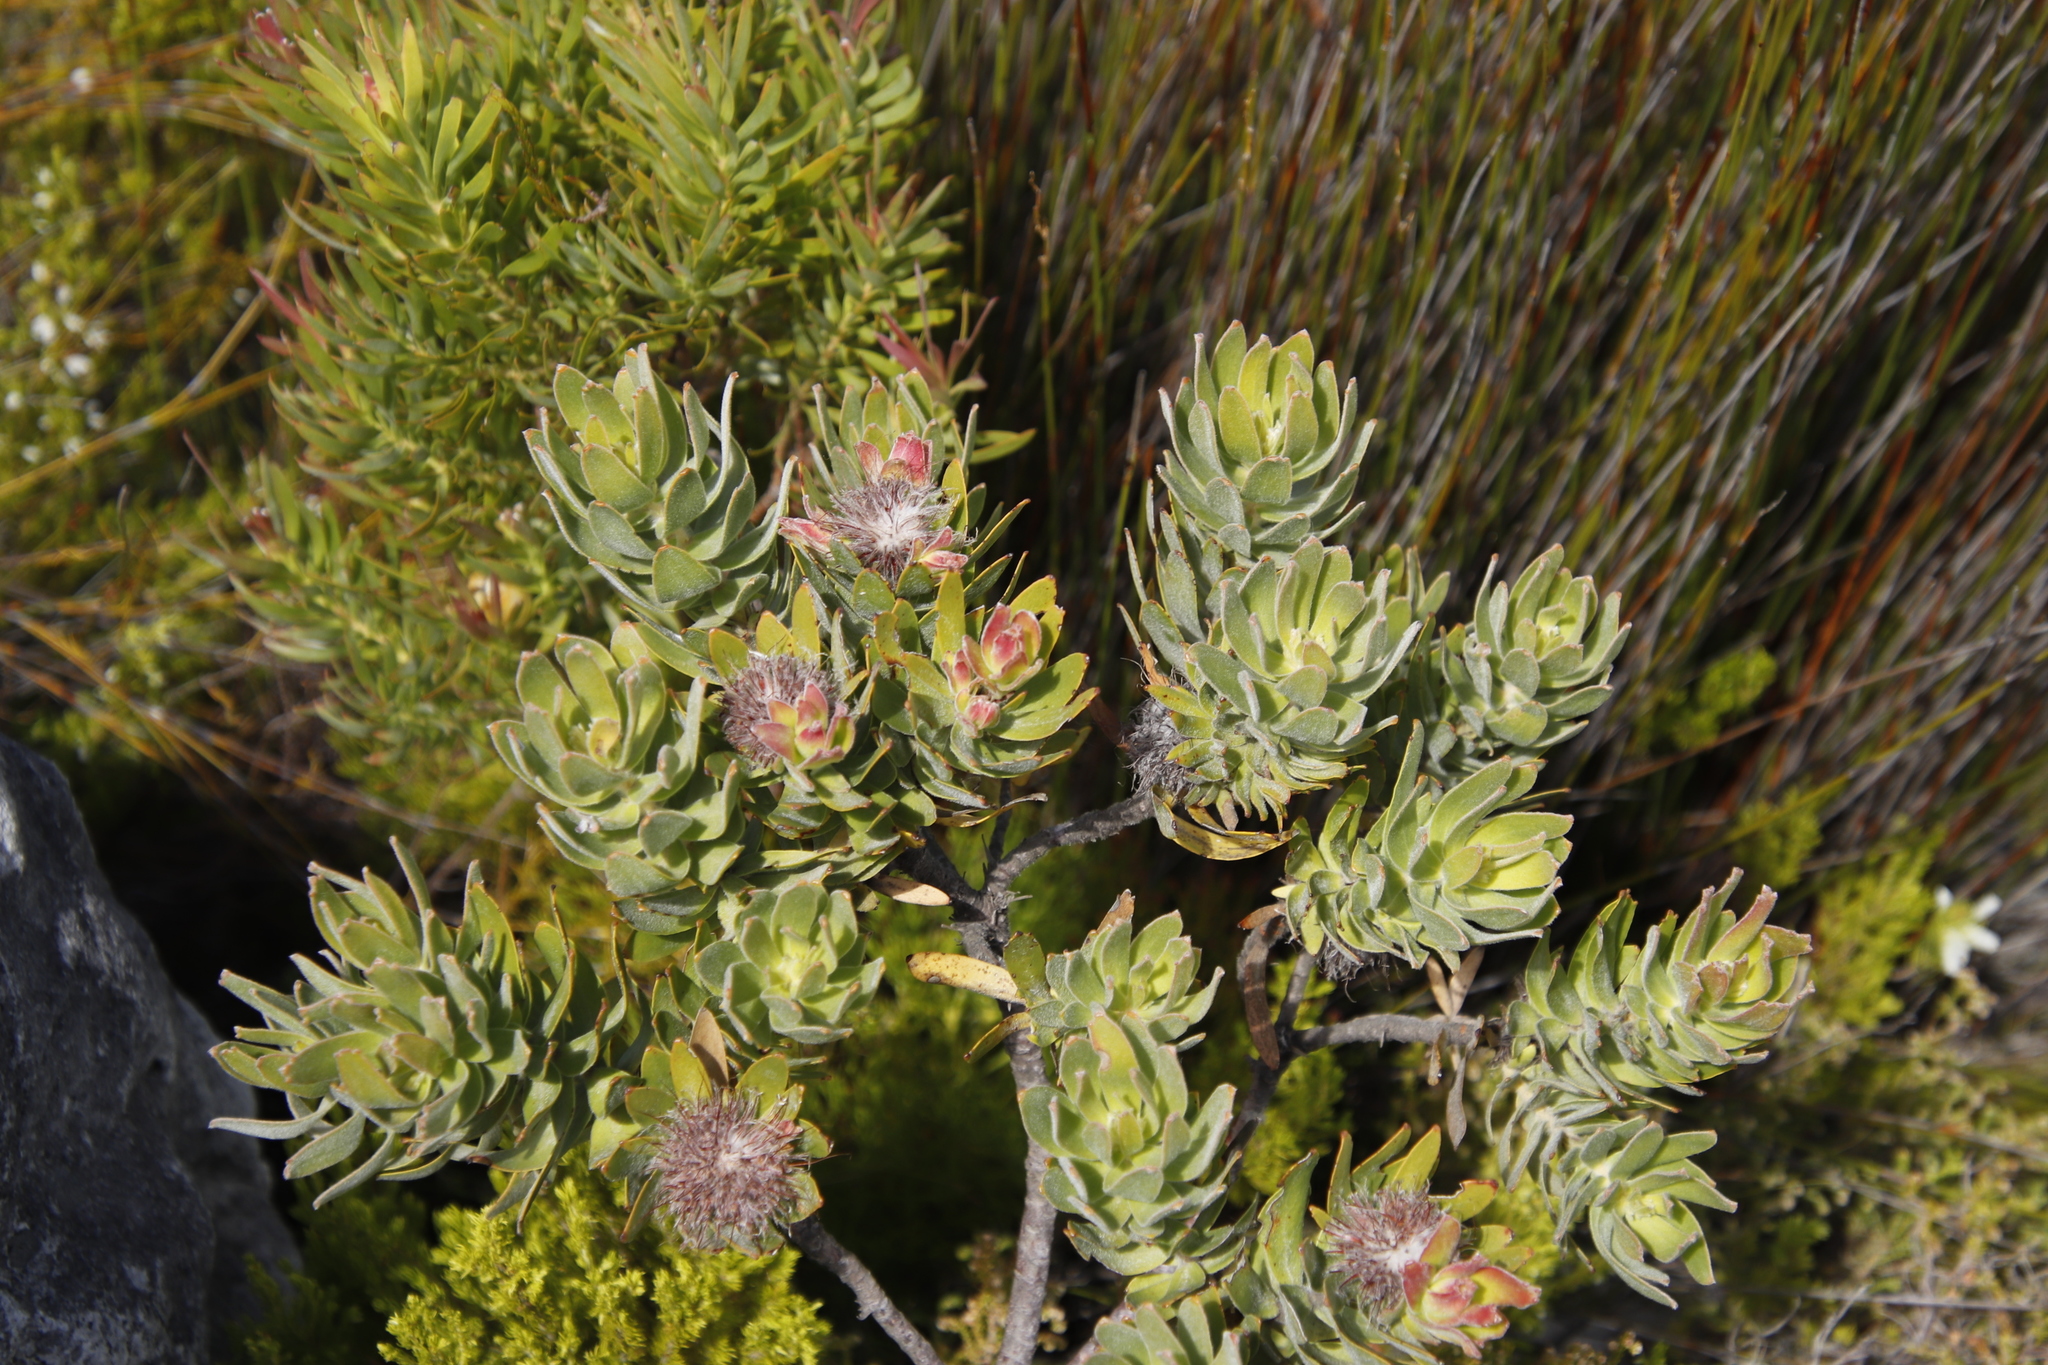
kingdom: Plantae
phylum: Tracheophyta
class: Magnoliopsida
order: Proteales
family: Proteaceae
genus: Leucospermum
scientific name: Leucospermum oleifolium
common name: Matches
